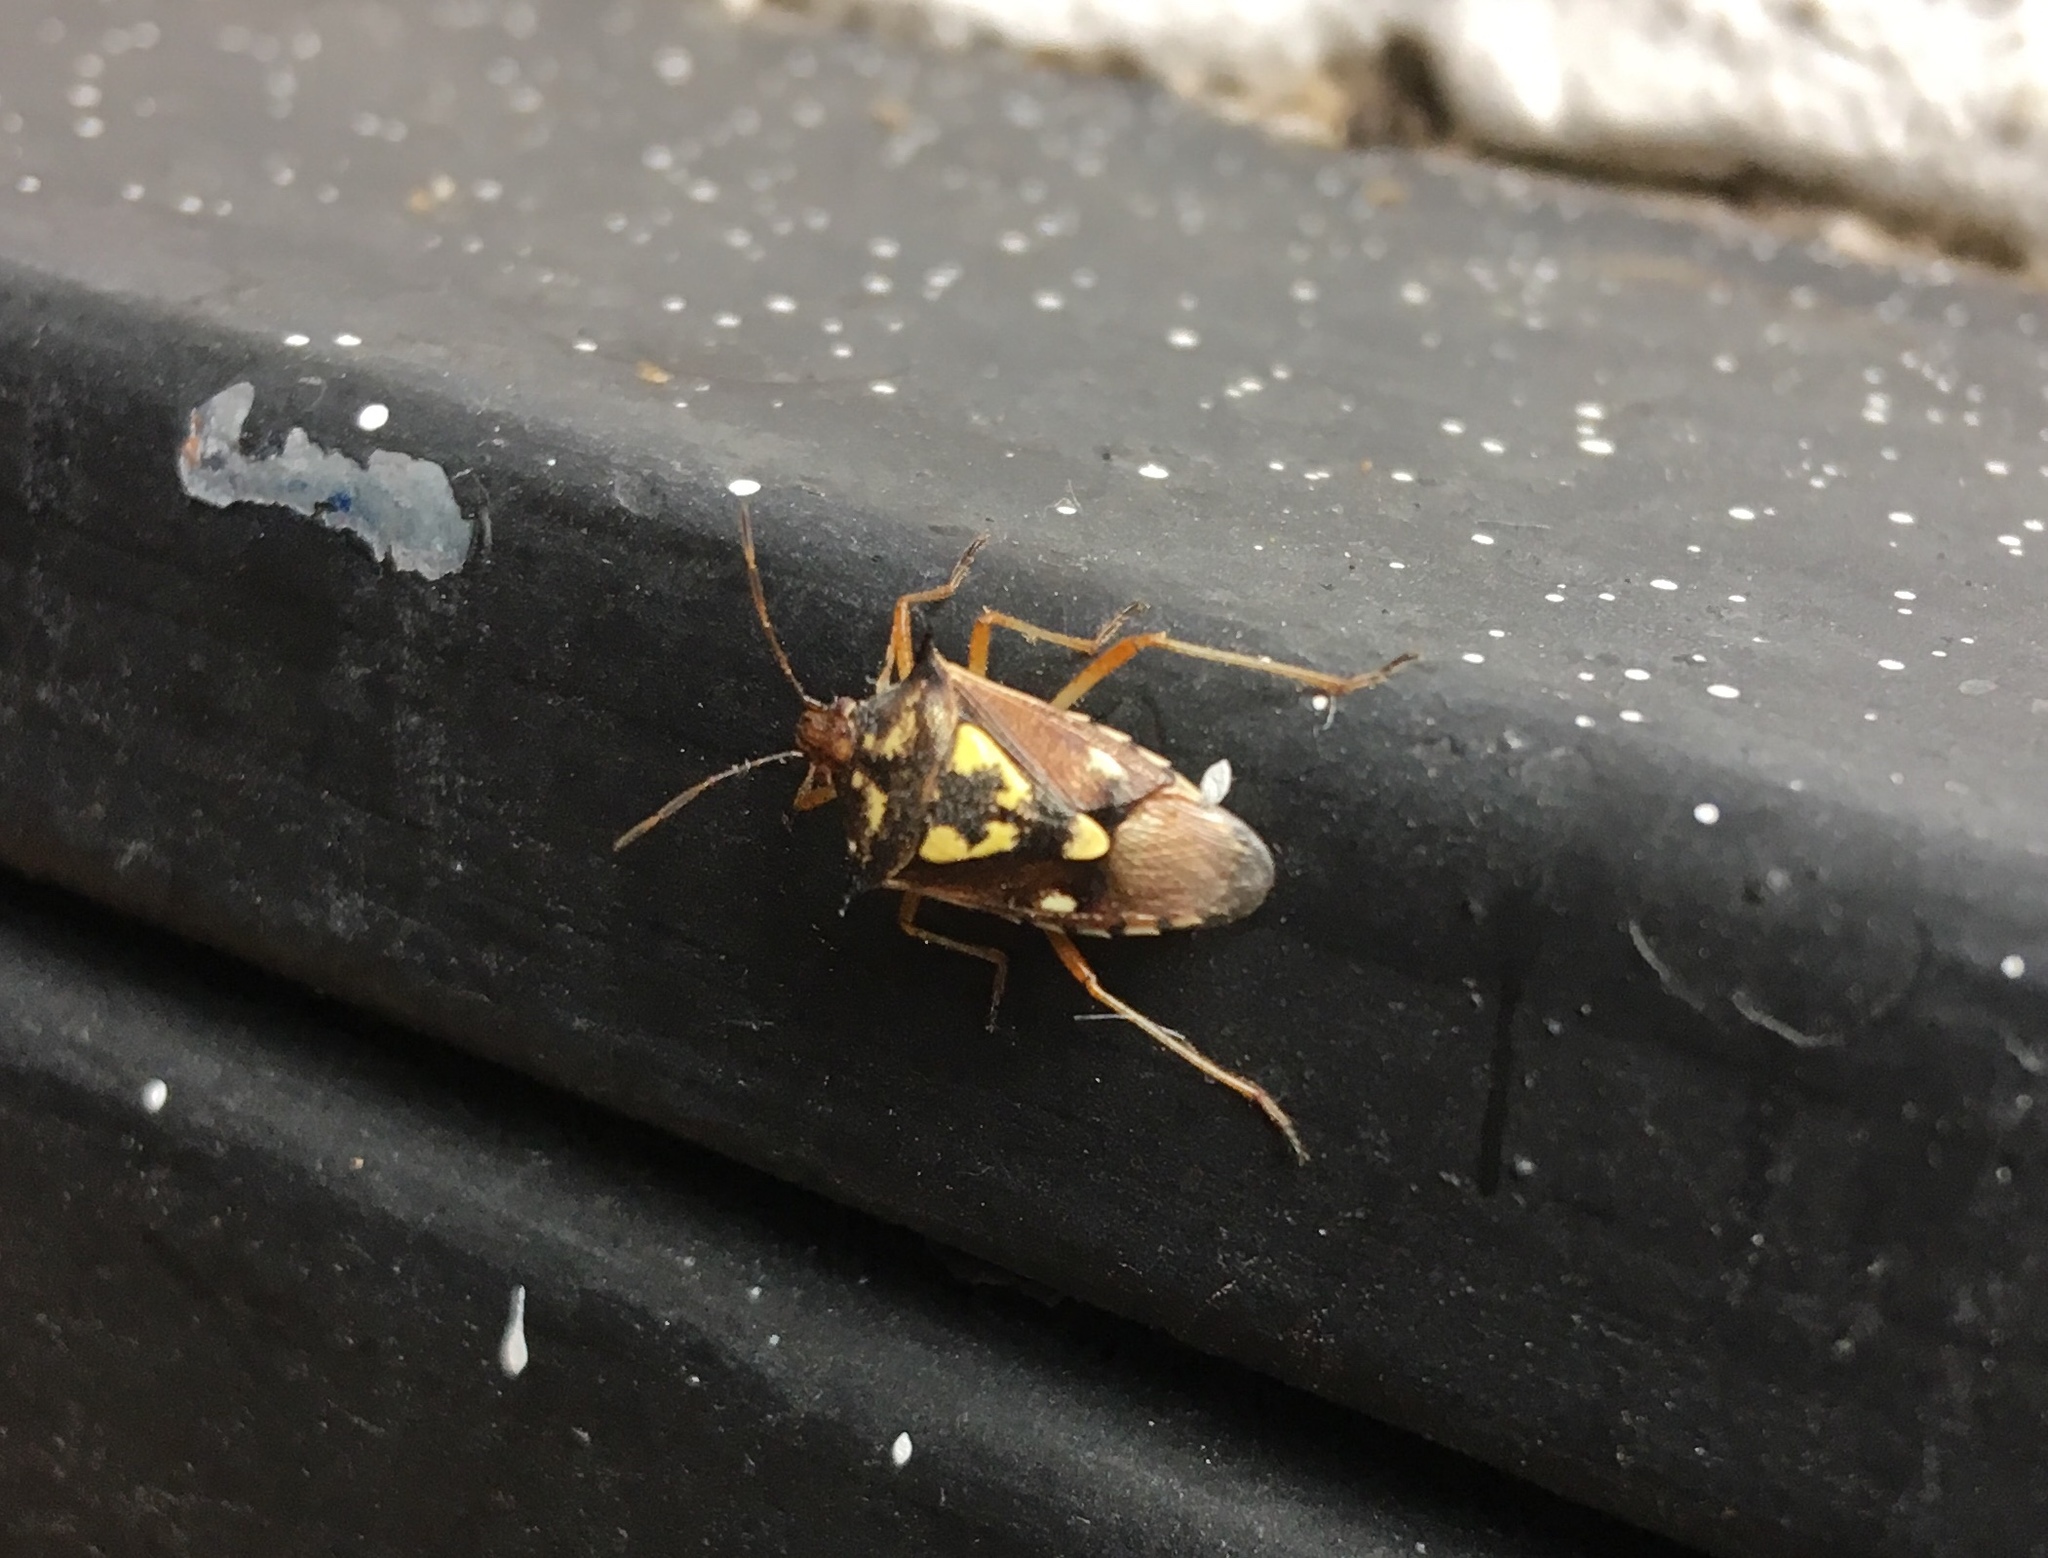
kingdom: Animalia
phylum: Arthropoda
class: Insecta
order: Hemiptera
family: Pentatomidae
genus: Oebalus
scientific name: Oebalus poecilus
